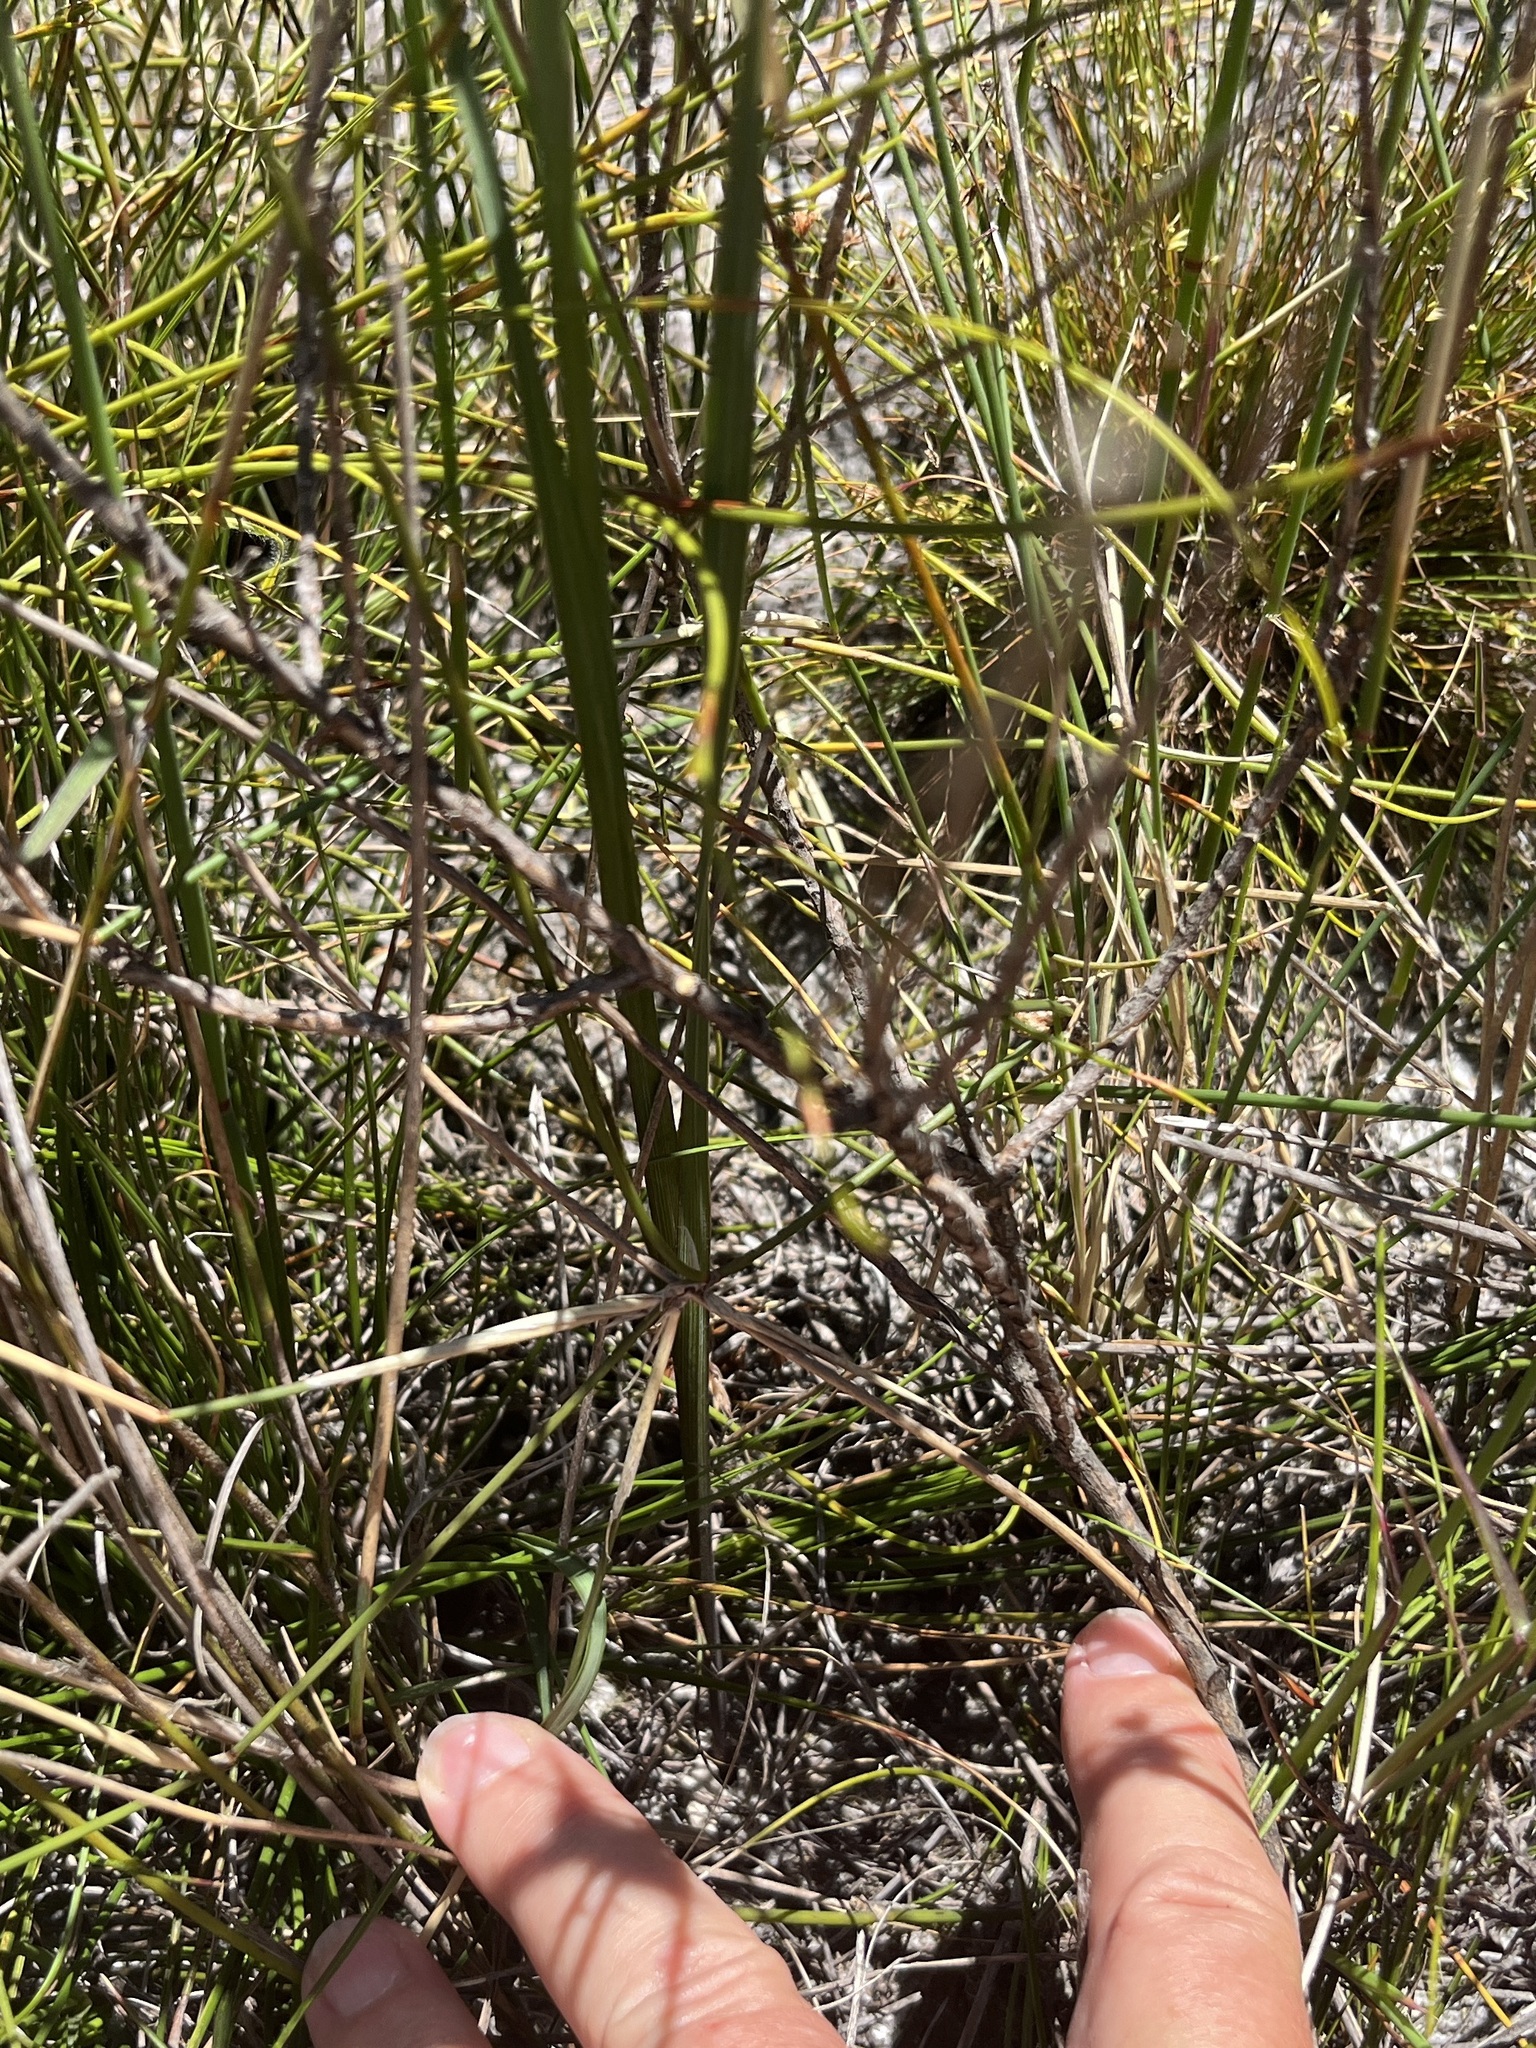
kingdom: Plantae
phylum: Tracheophyta
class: Liliopsida
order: Asparagales
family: Iridaceae
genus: Gladiolus
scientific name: Gladiolus carneus
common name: Painted-lady
